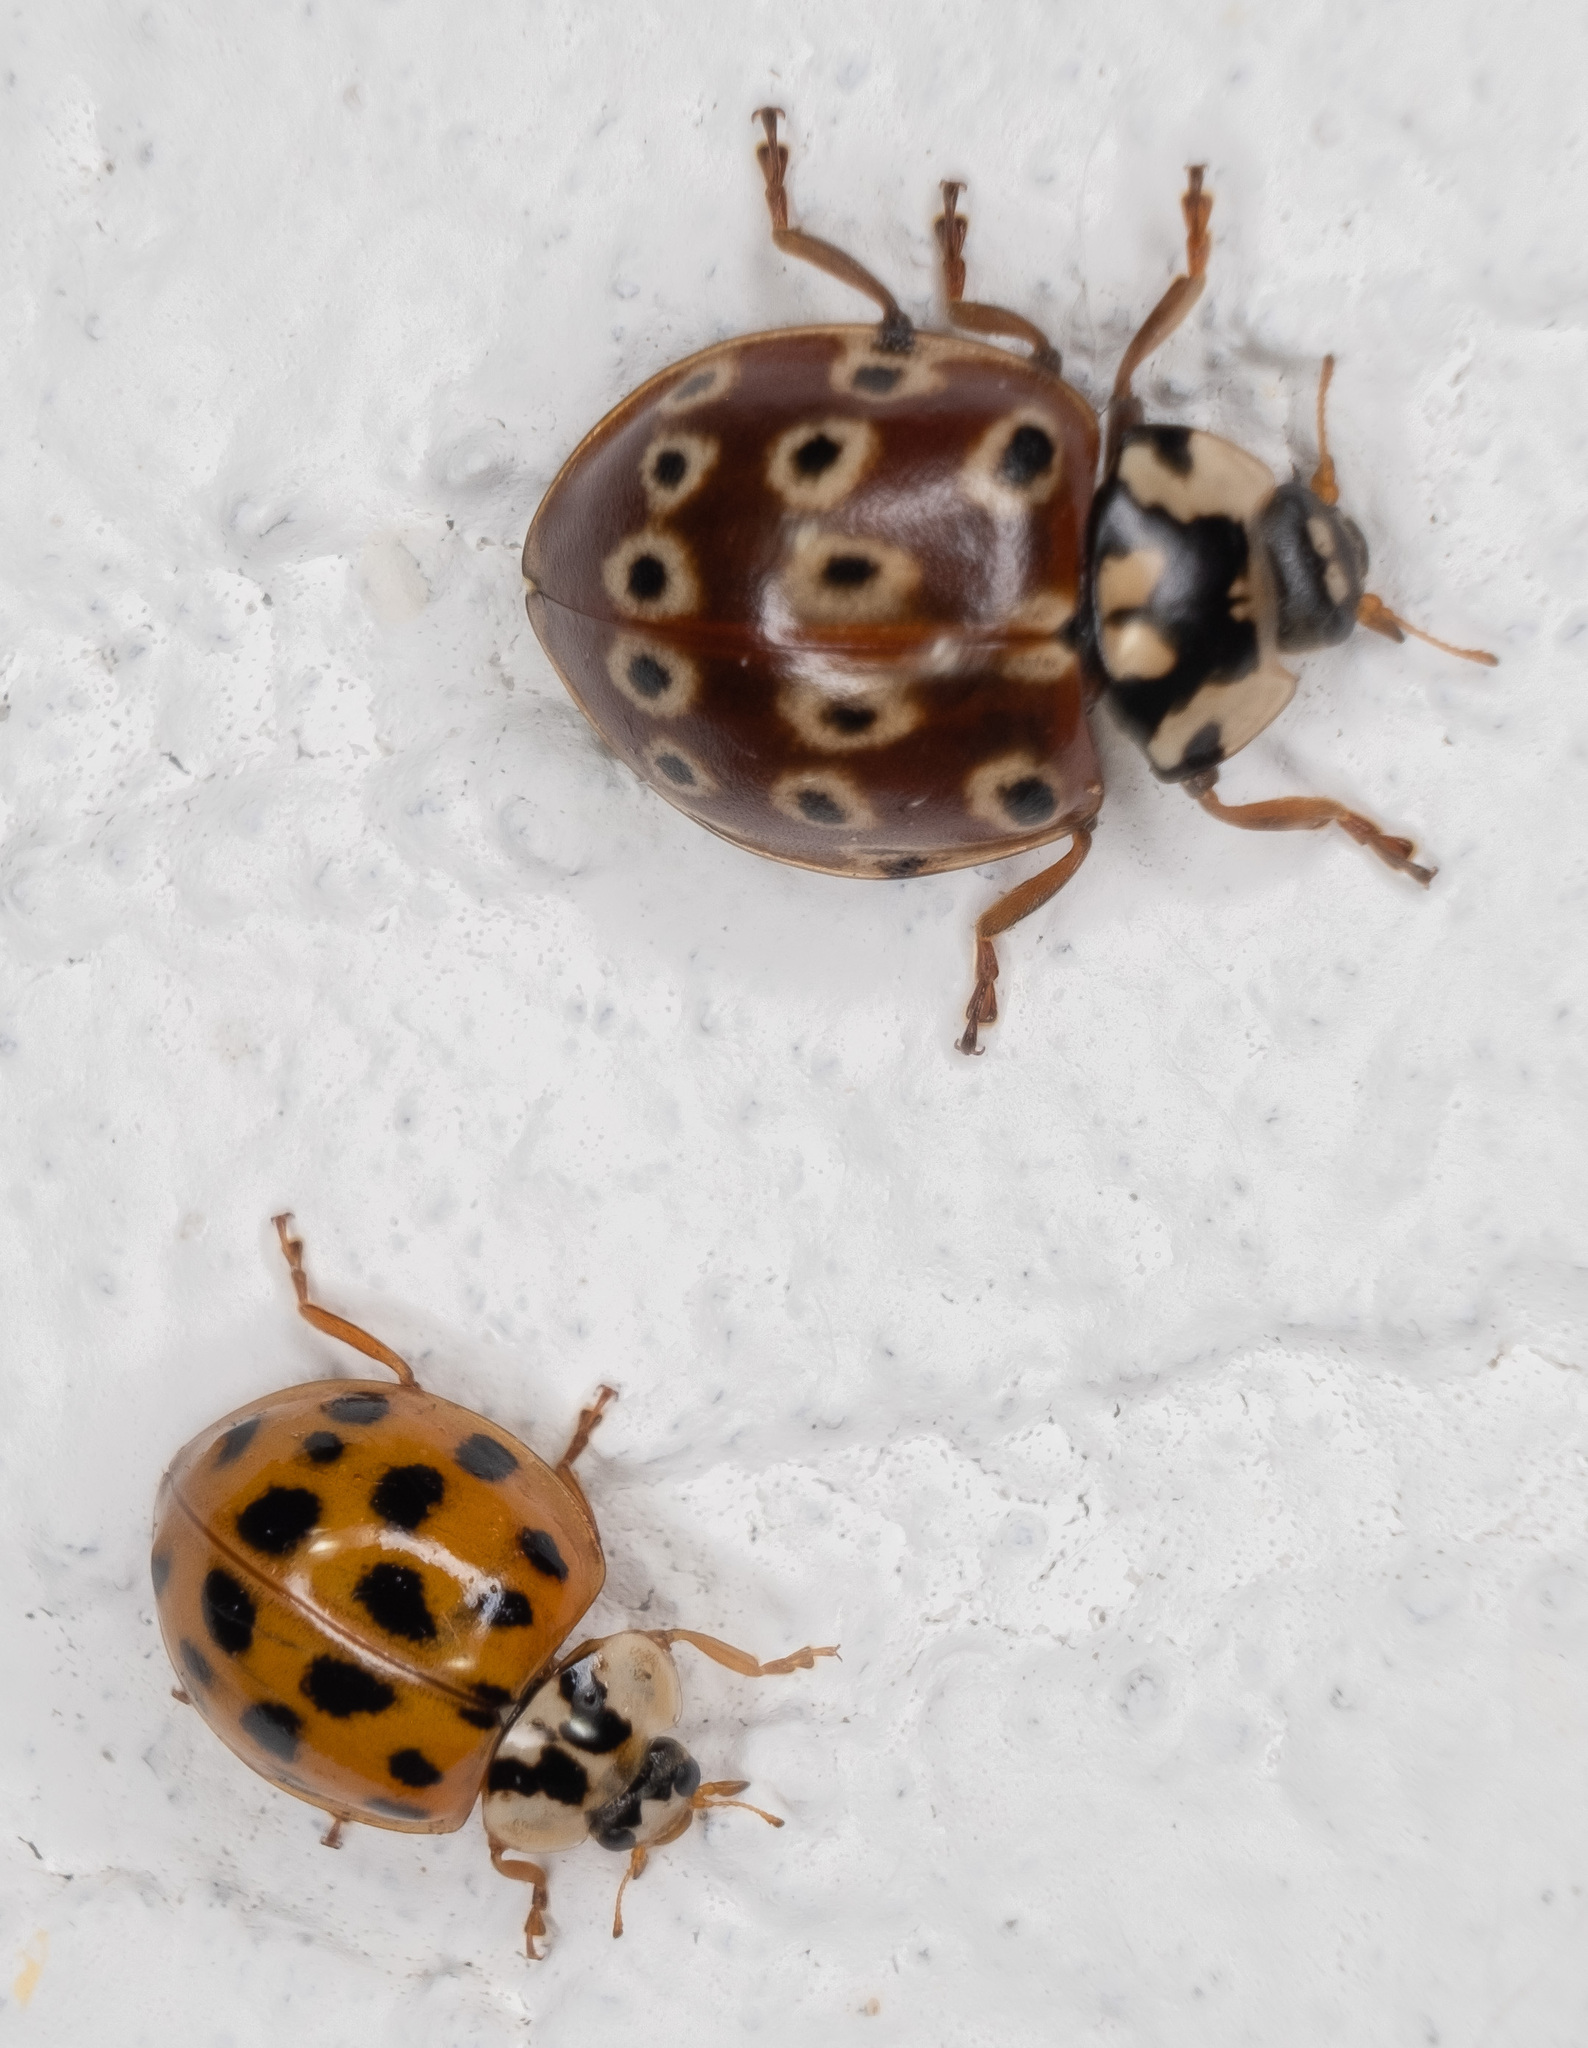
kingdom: Animalia
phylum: Arthropoda
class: Insecta
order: Coleoptera
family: Coccinellidae
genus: Harmonia
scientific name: Harmonia axyridis
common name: Harlequin ladybird
